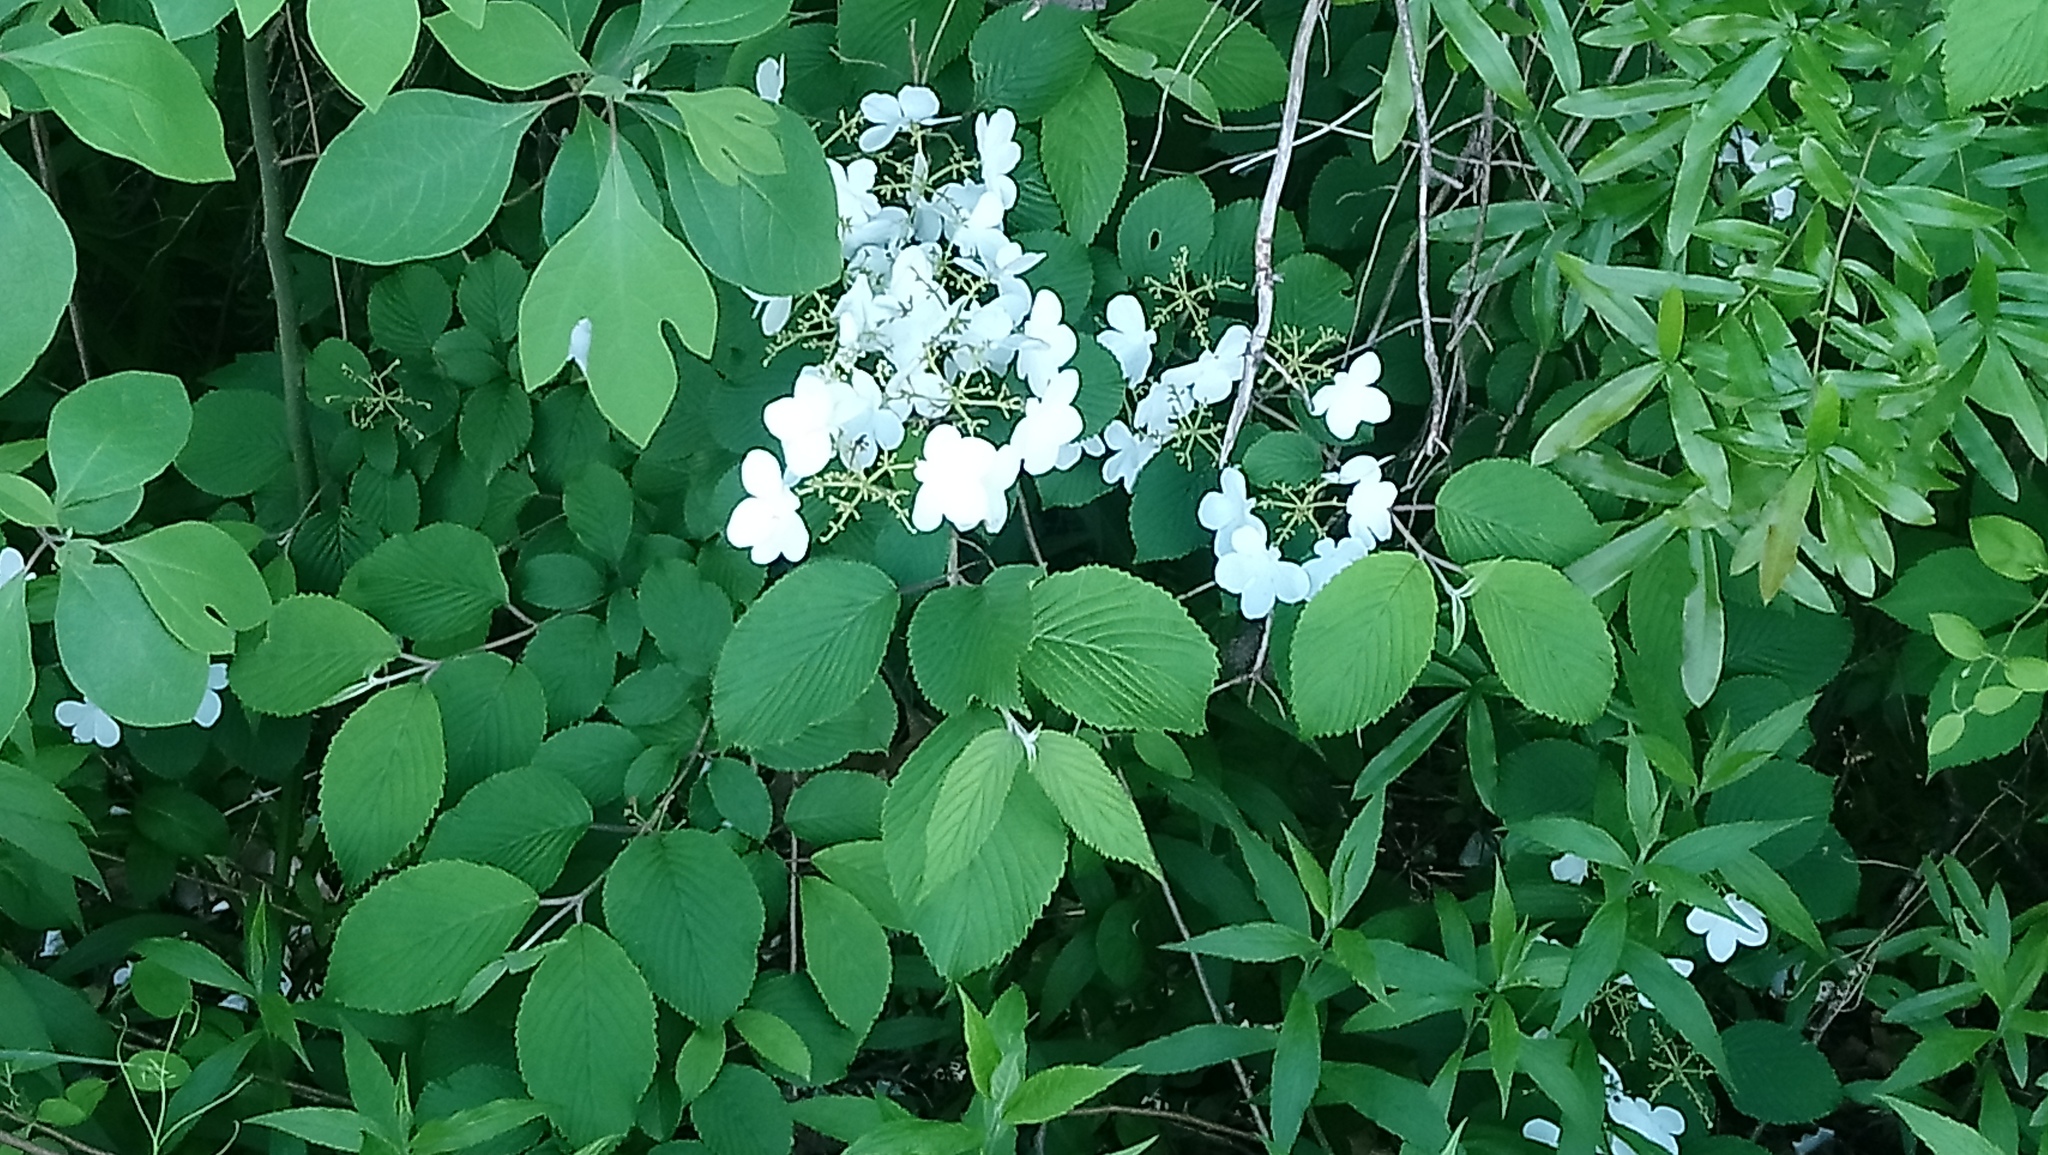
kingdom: Plantae
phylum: Tracheophyta
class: Magnoliopsida
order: Dipsacales
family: Viburnaceae
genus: Viburnum
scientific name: Viburnum plicatum
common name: Japanese snowball
